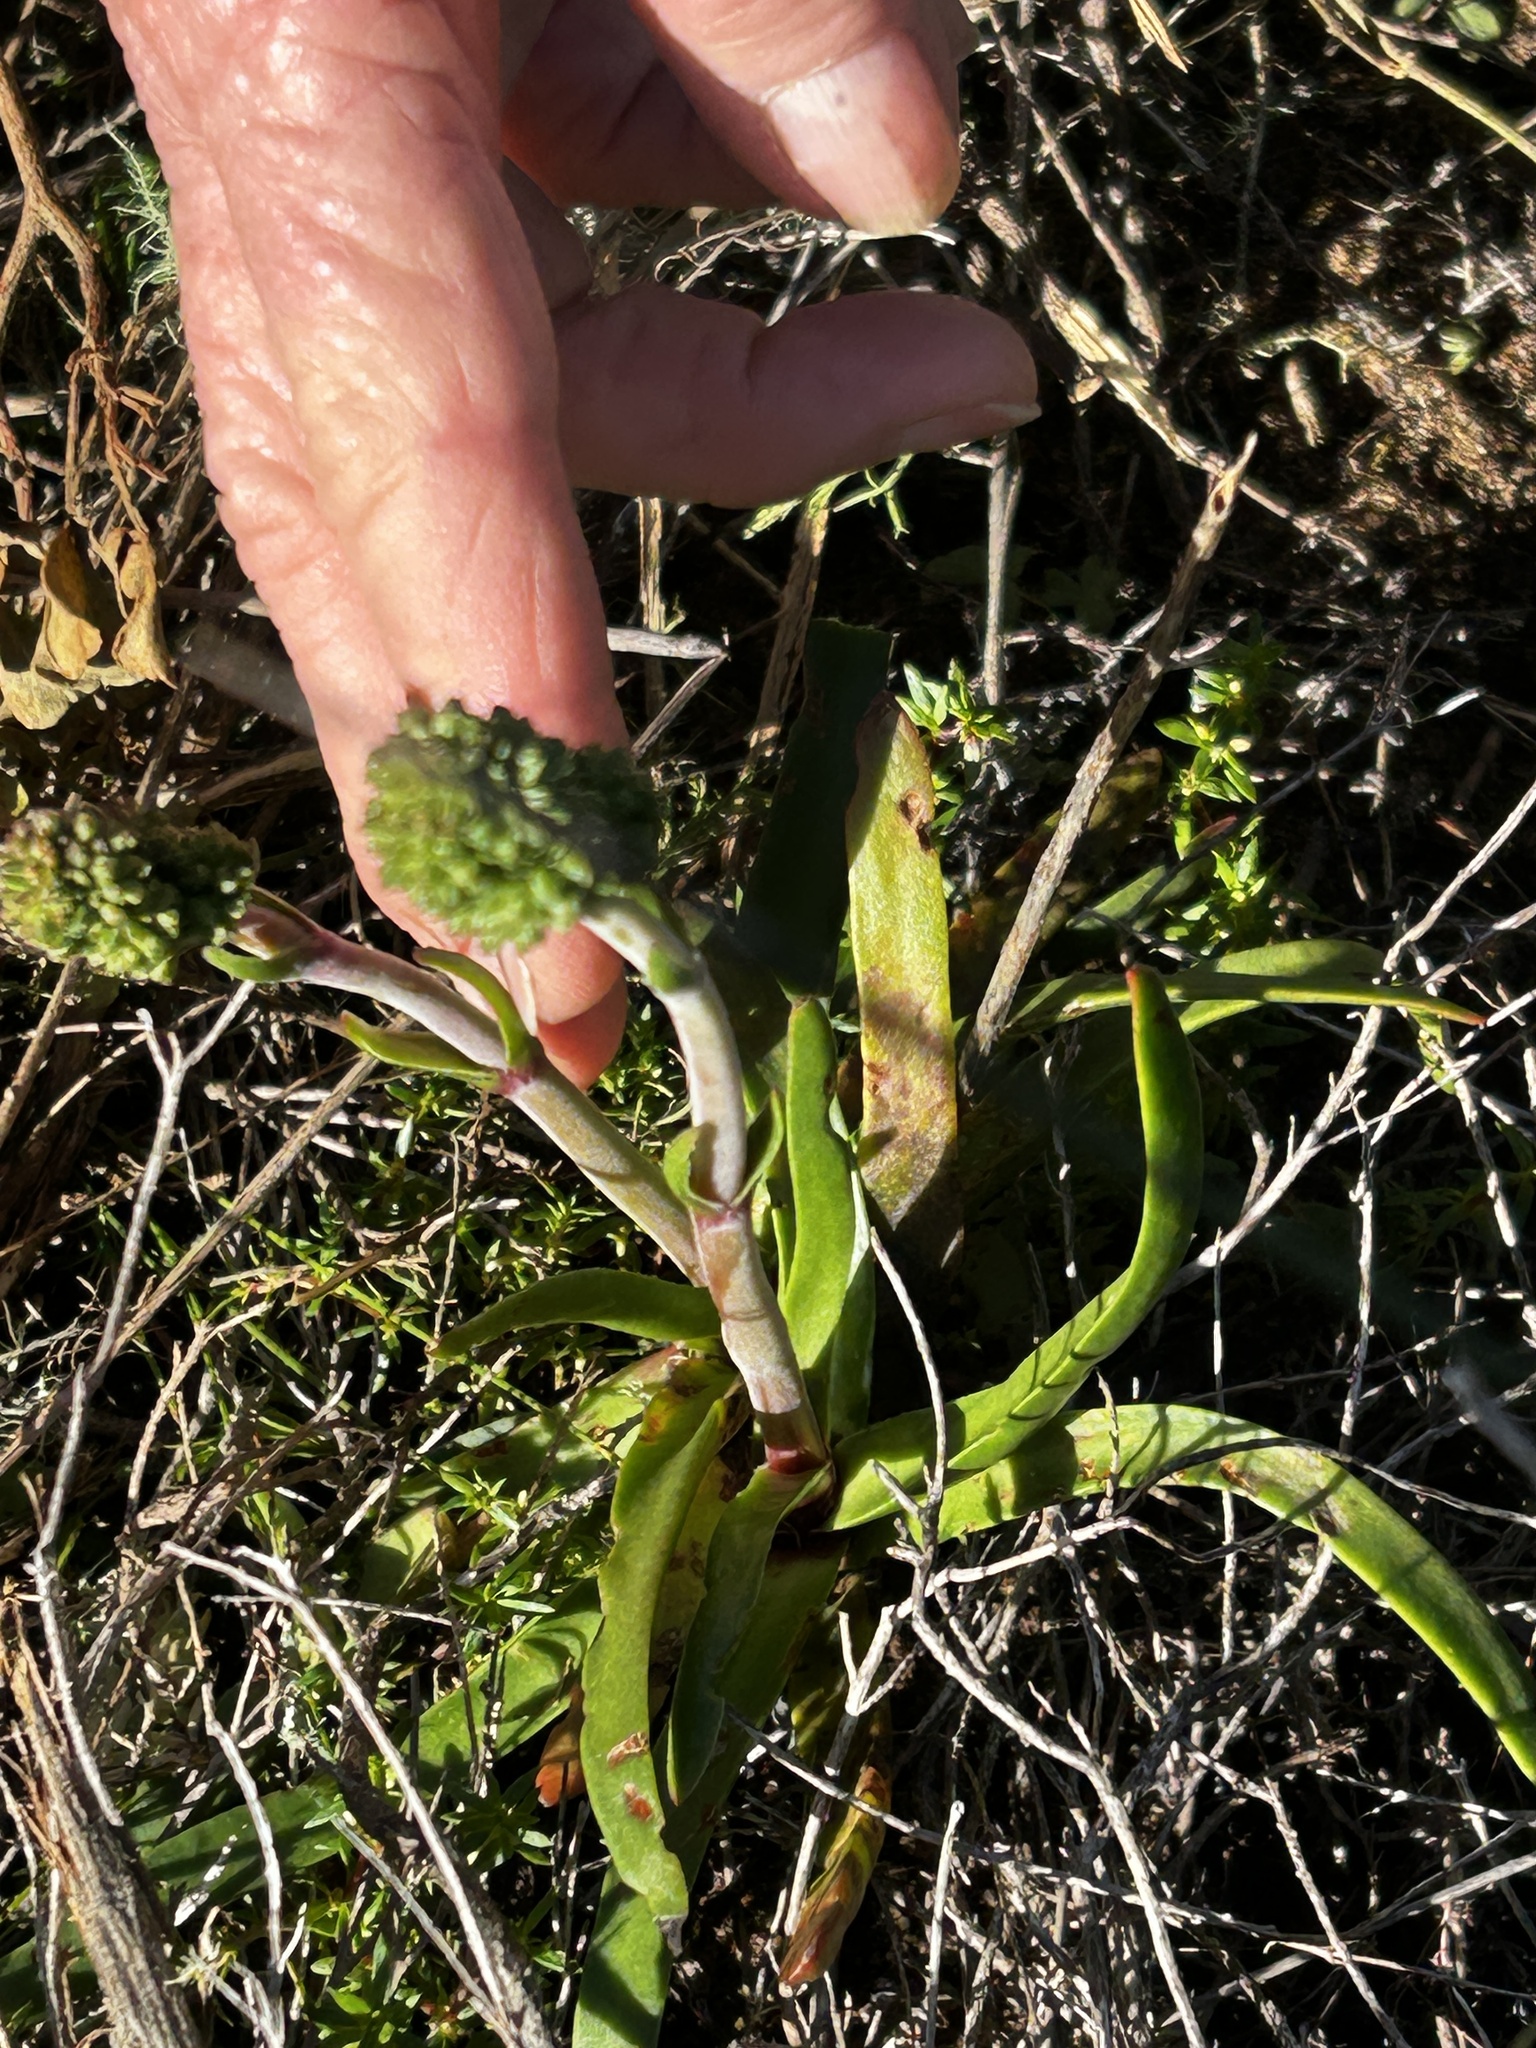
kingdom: Plantae
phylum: Tracheophyta
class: Magnoliopsida
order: Saxifragales
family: Crassulaceae
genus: Crassula
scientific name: Crassula nudicaulis
